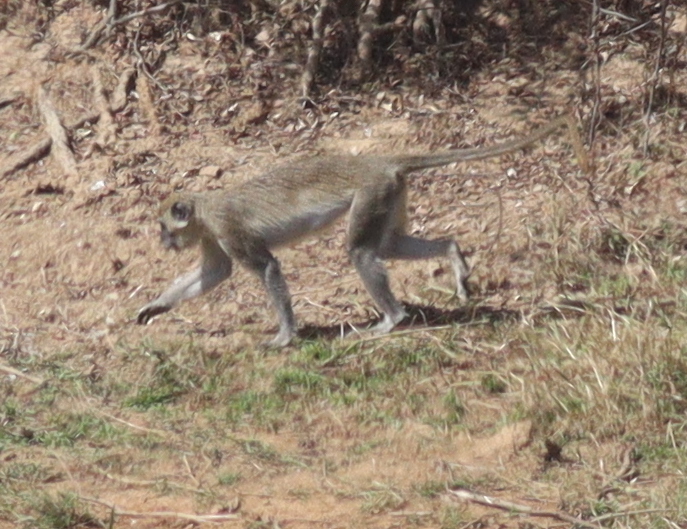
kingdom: Animalia
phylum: Chordata
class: Mammalia
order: Primates
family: Cercopithecidae
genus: Chlorocebus
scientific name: Chlorocebus sabaeus
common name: Green monkey
